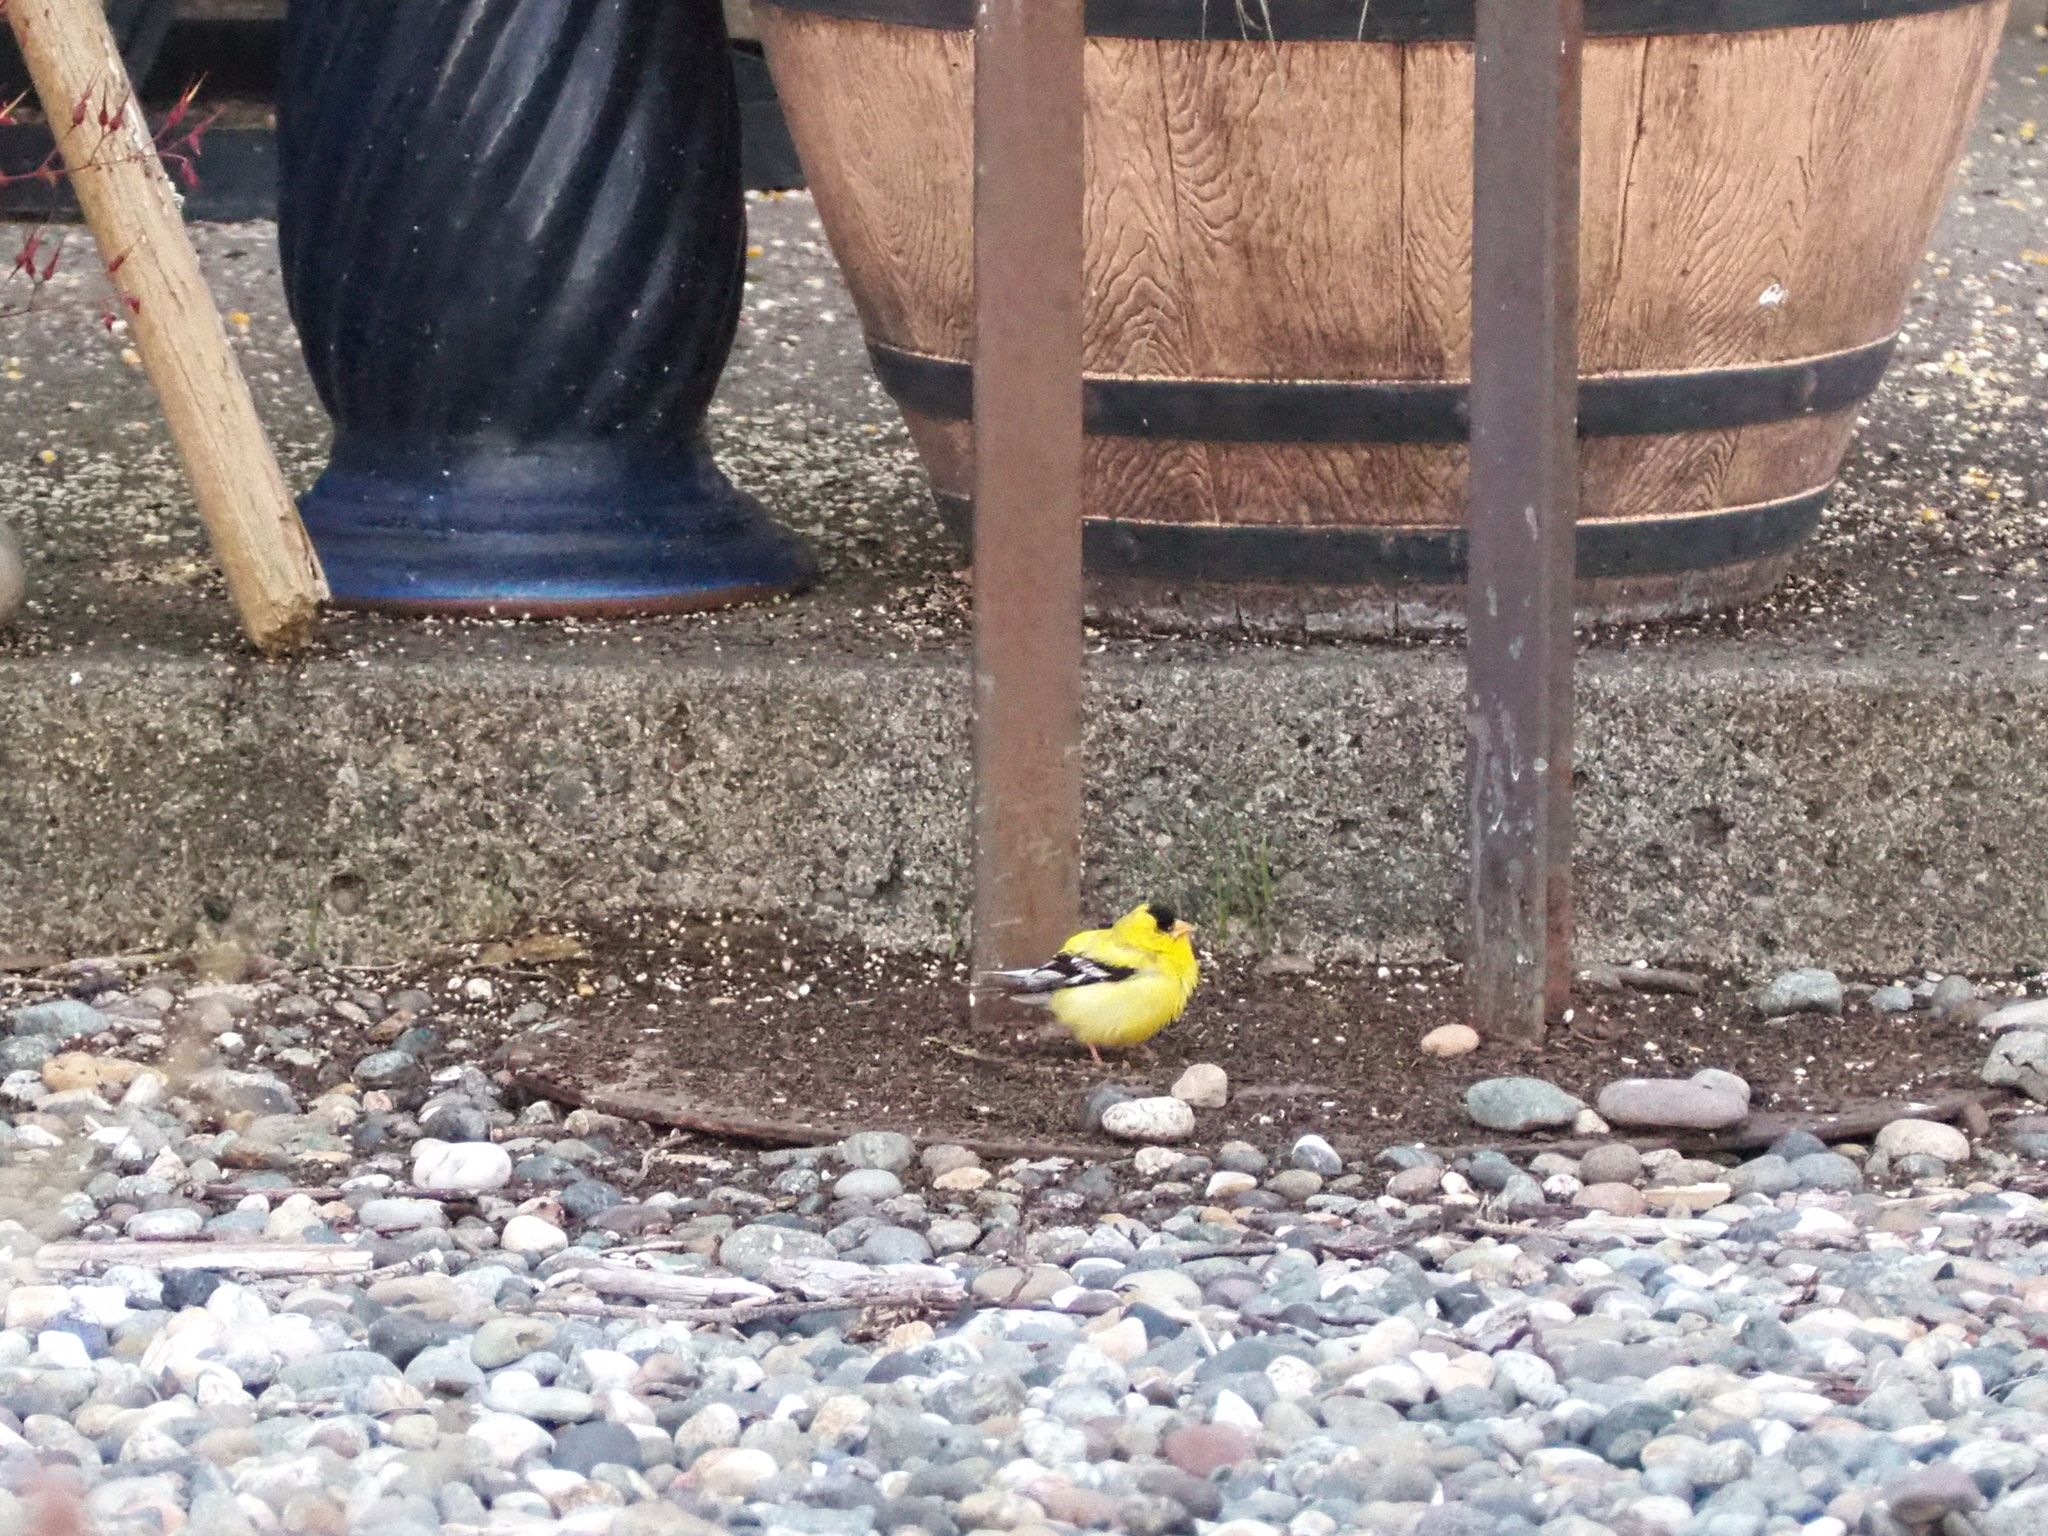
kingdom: Animalia
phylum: Chordata
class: Aves
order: Passeriformes
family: Fringillidae
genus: Spinus
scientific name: Spinus tristis
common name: American goldfinch
